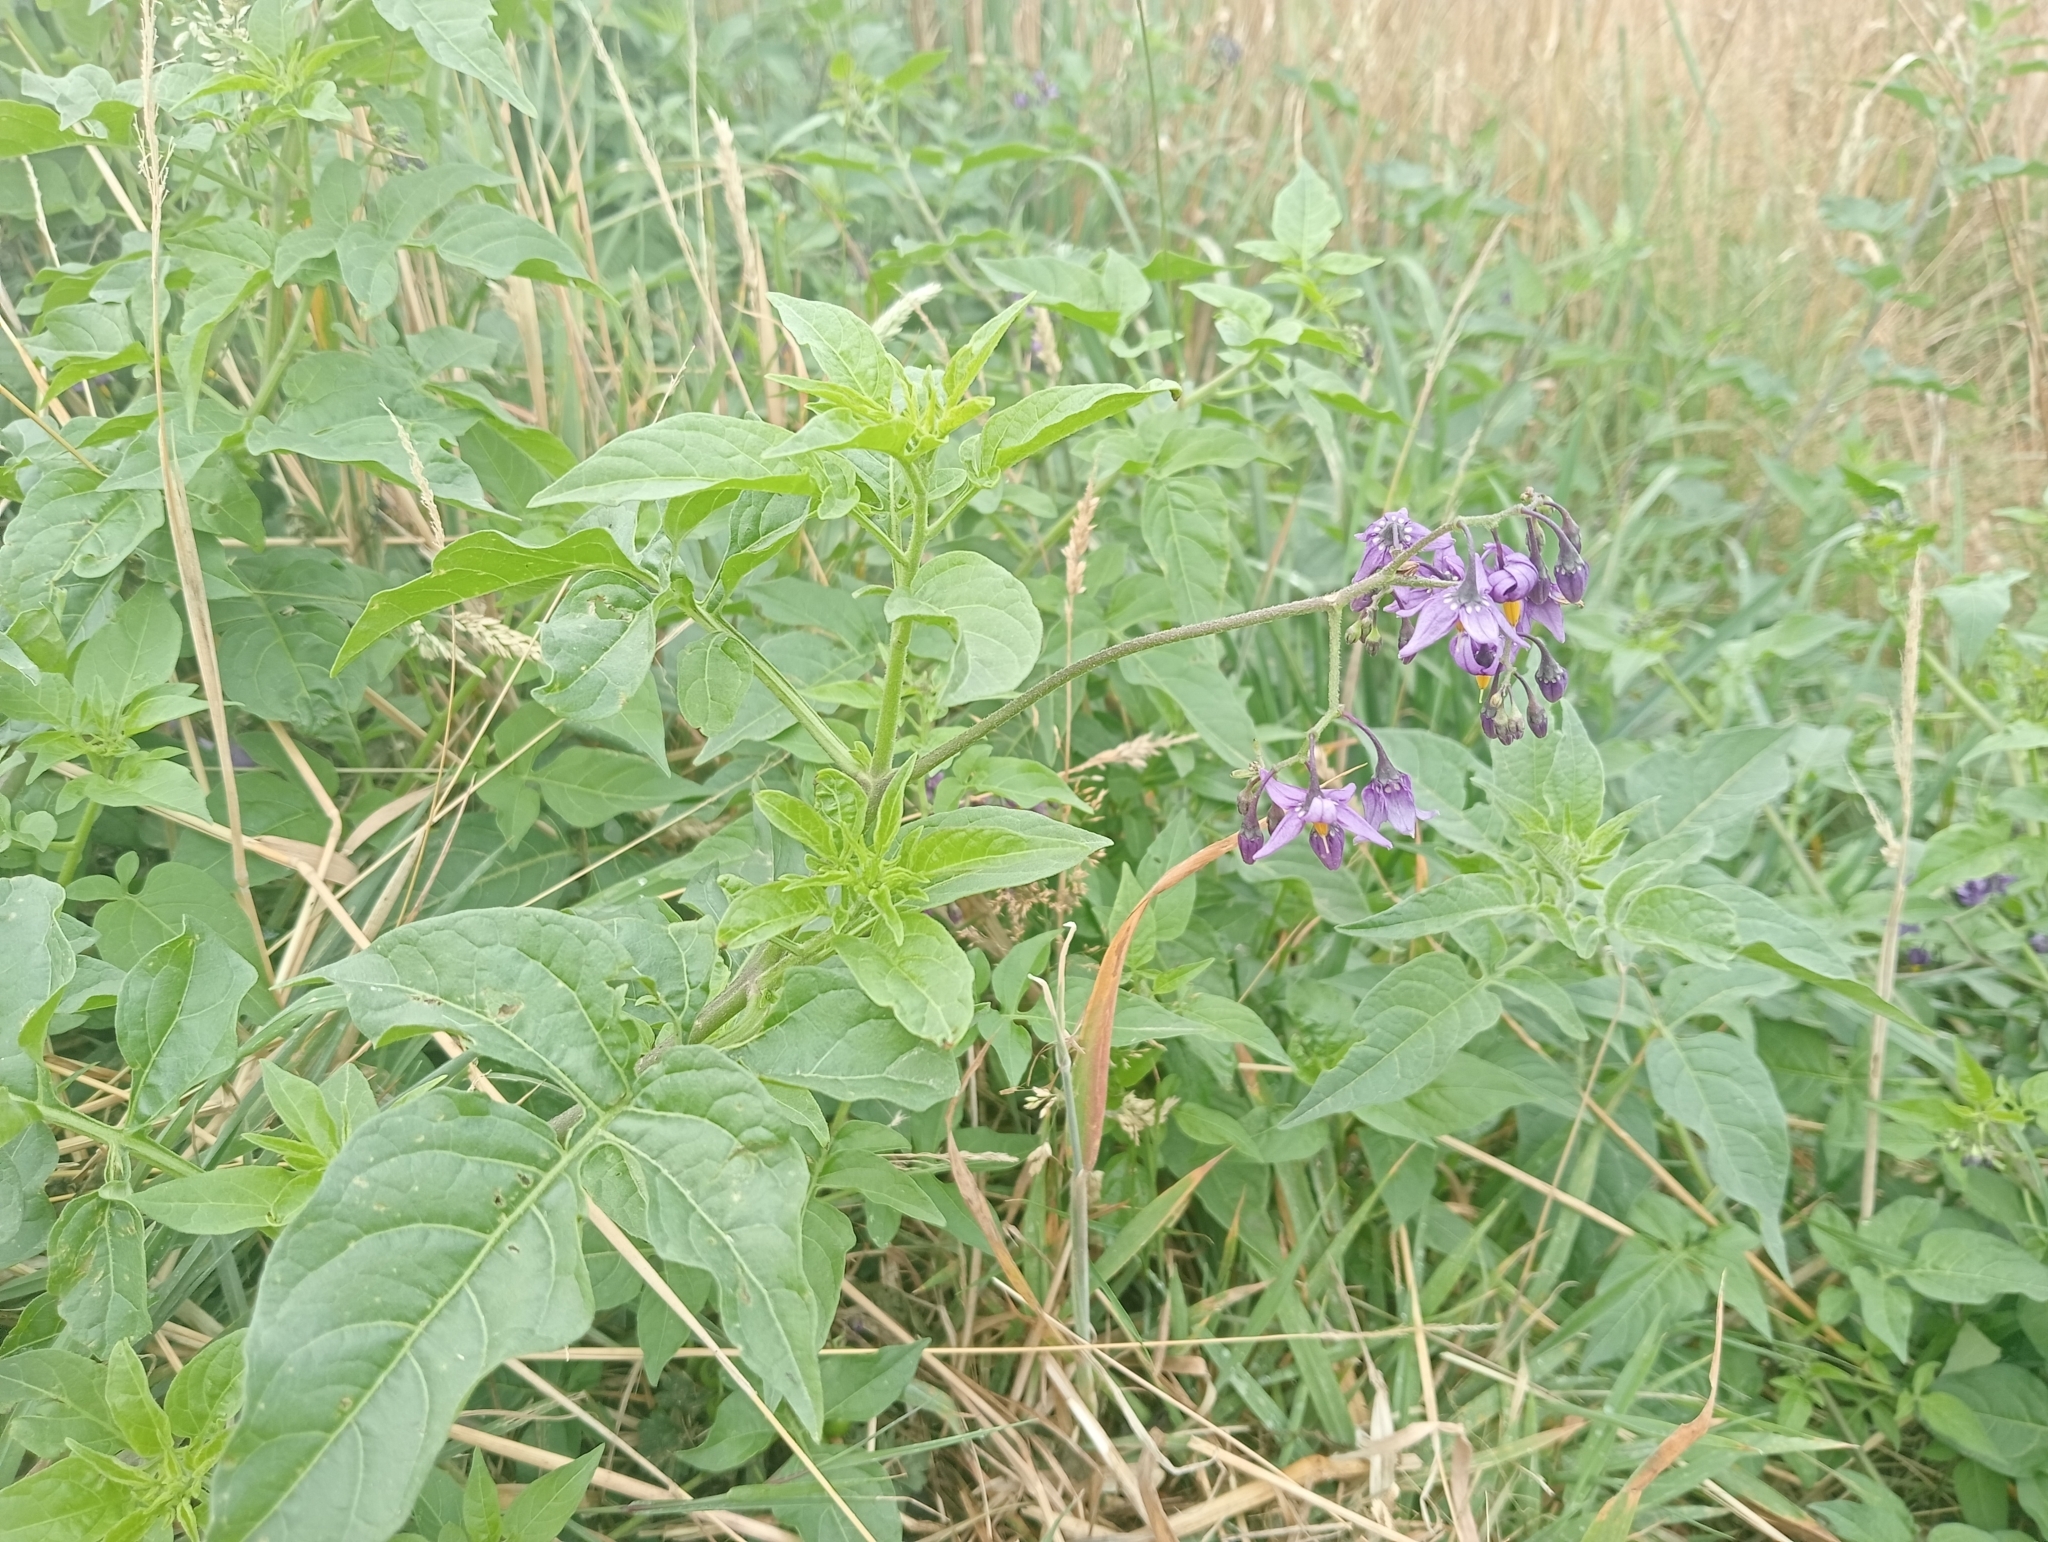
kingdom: Plantae
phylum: Tracheophyta
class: Magnoliopsida
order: Solanales
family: Solanaceae
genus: Solanum
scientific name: Solanum dulcamara
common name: Climbing nightshade
